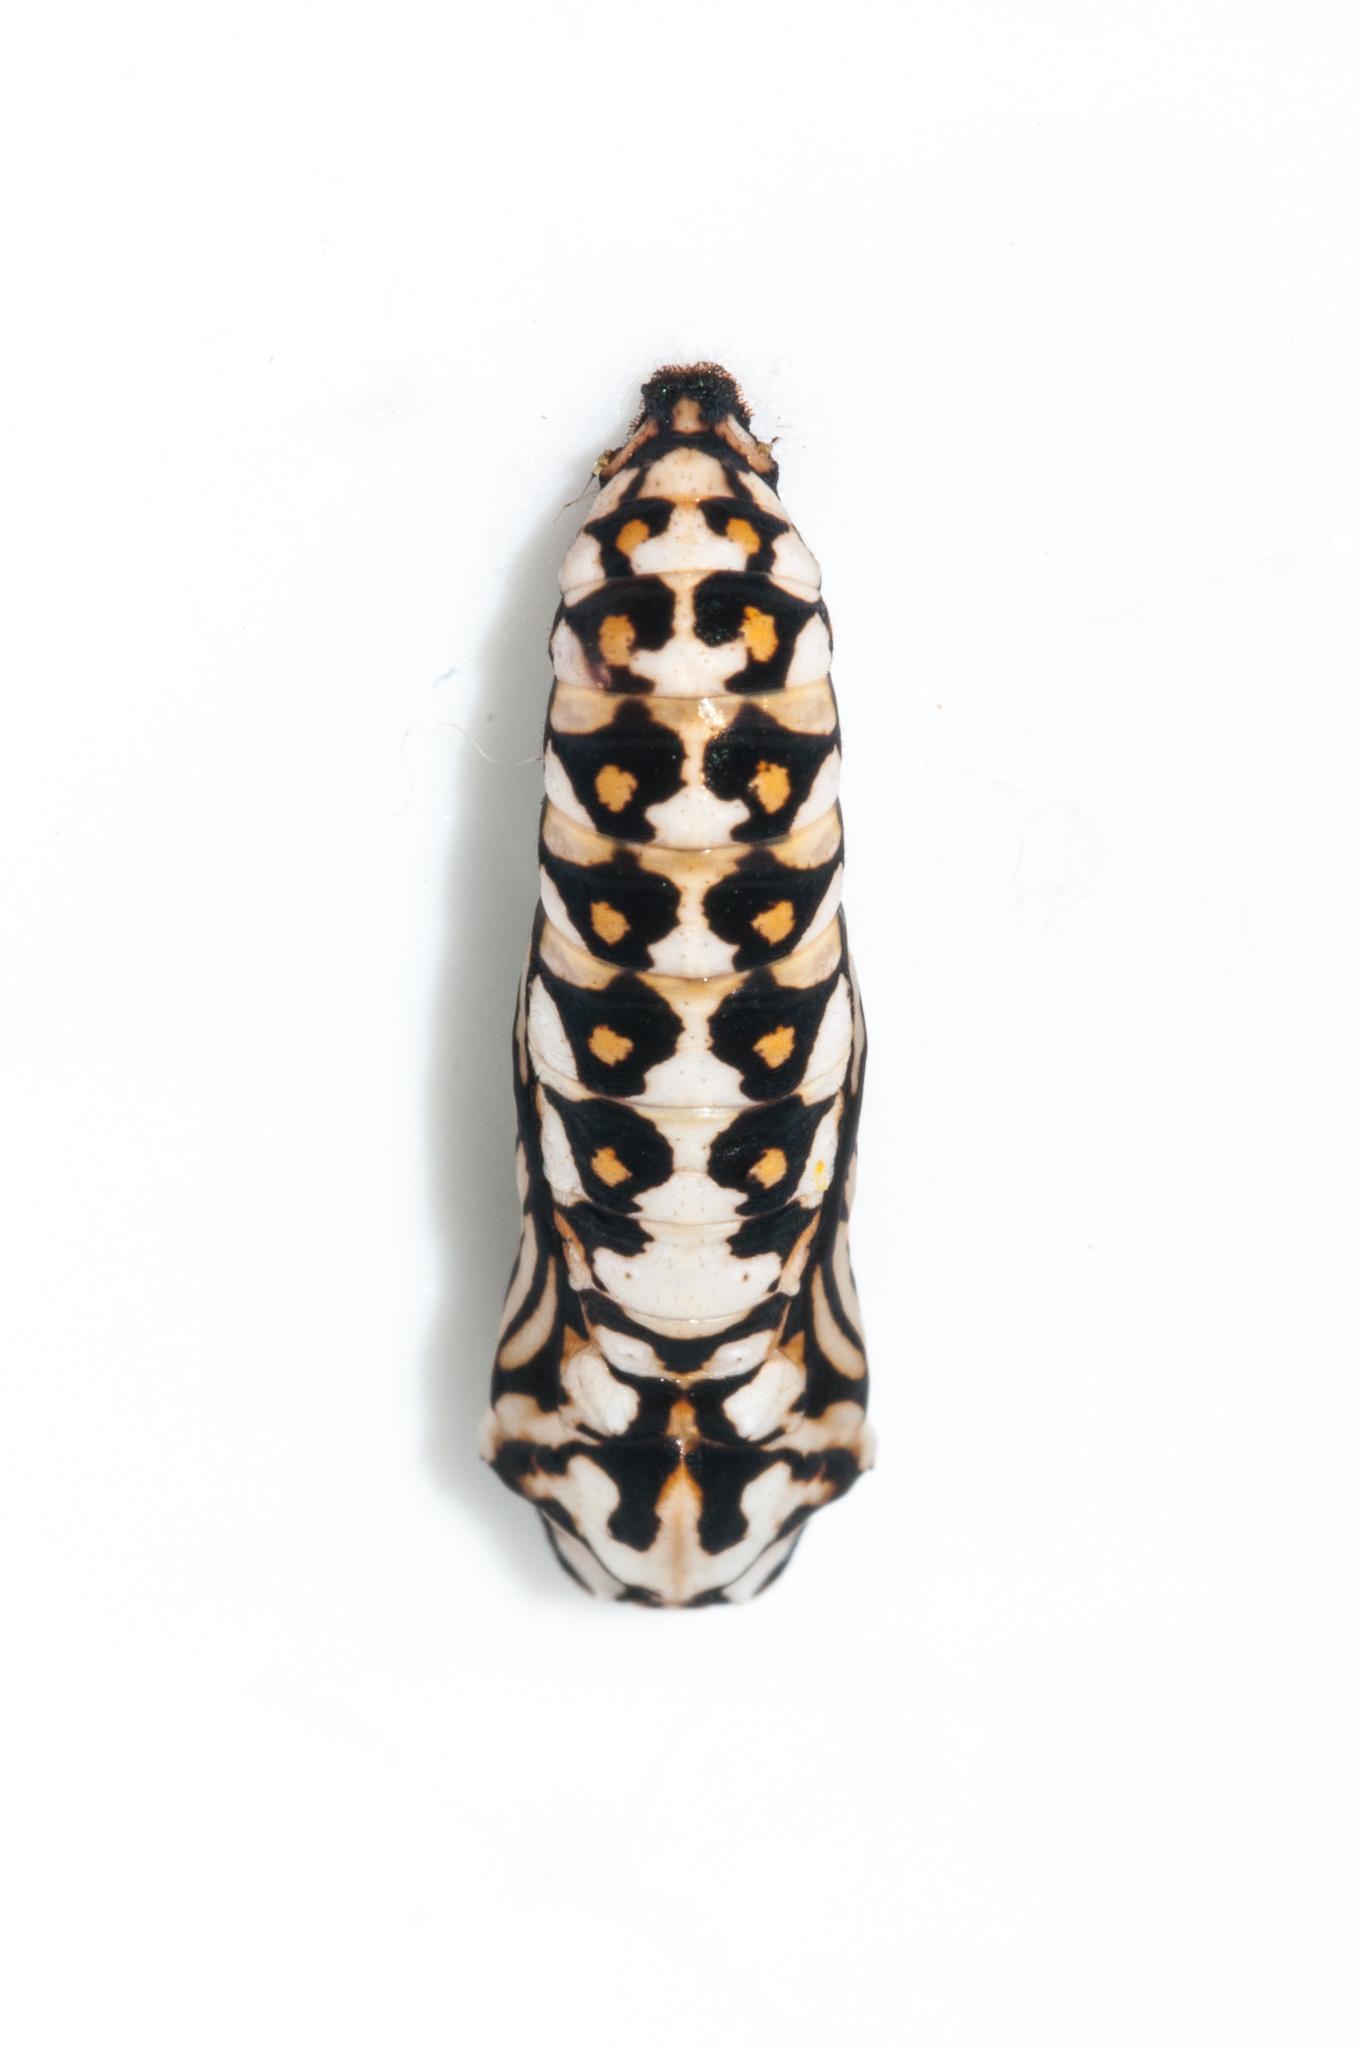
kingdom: Animalia
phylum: Arthropoda
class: Insecta
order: Lepidoptera
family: Nymphalidae
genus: Acraea
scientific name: Acraea horta
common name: Garden acraea
